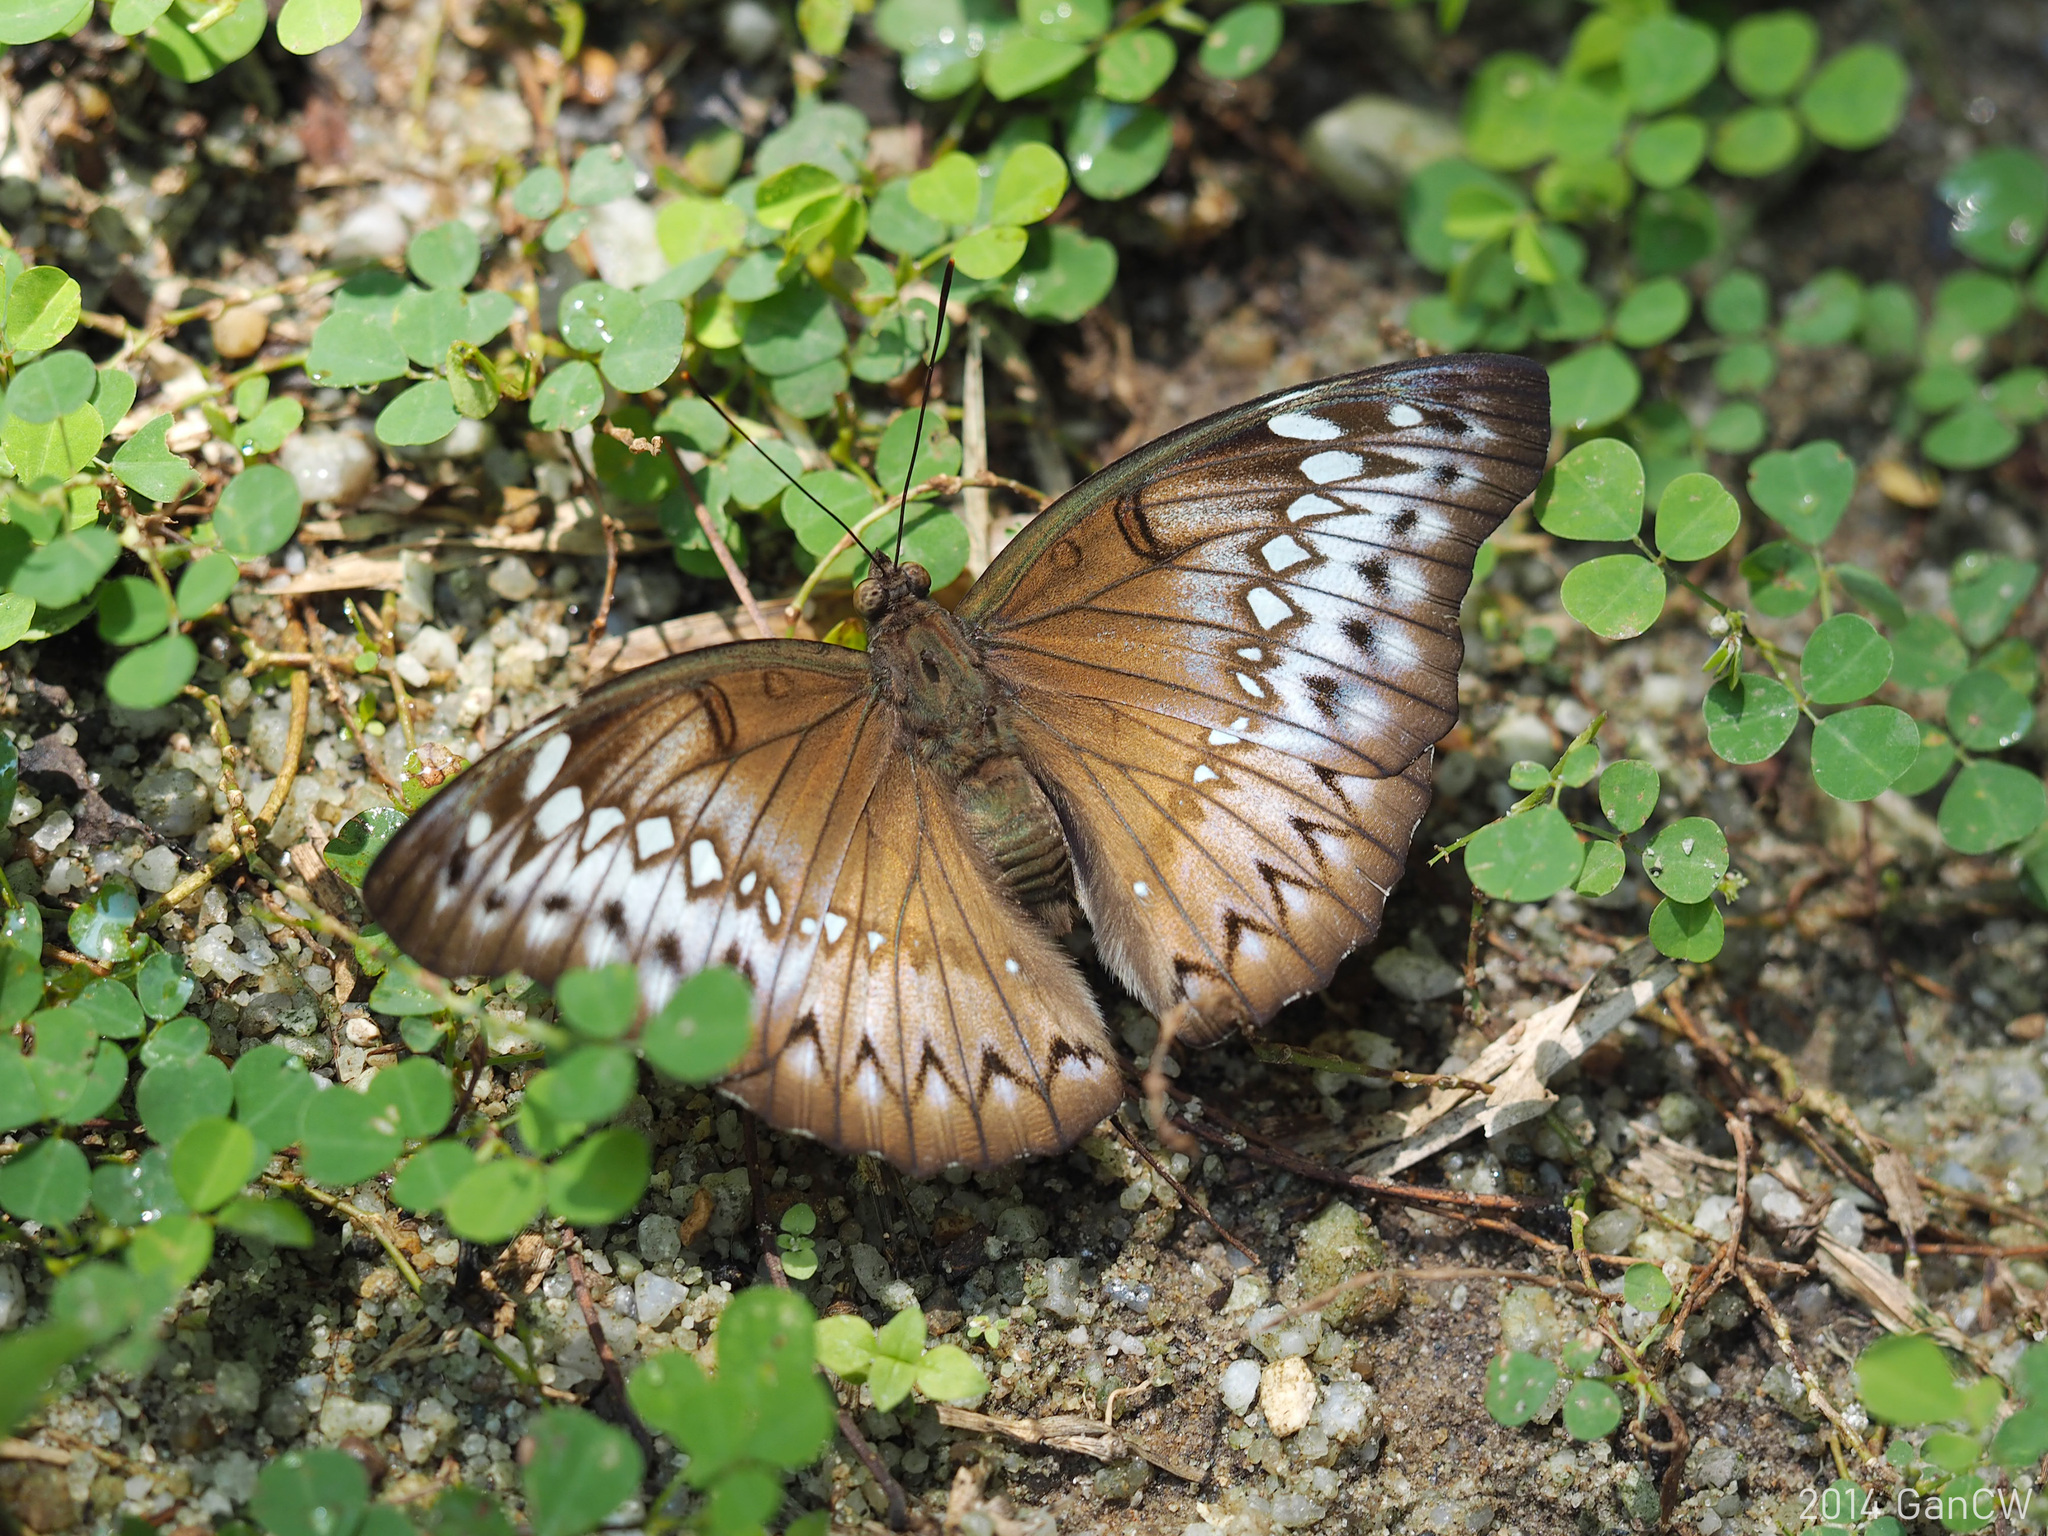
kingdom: Animalia
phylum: Arthropoda
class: Insecta
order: Lepidoptera
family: Nymphalidae
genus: Euthalia
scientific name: Euthalia Bassarona teuta
